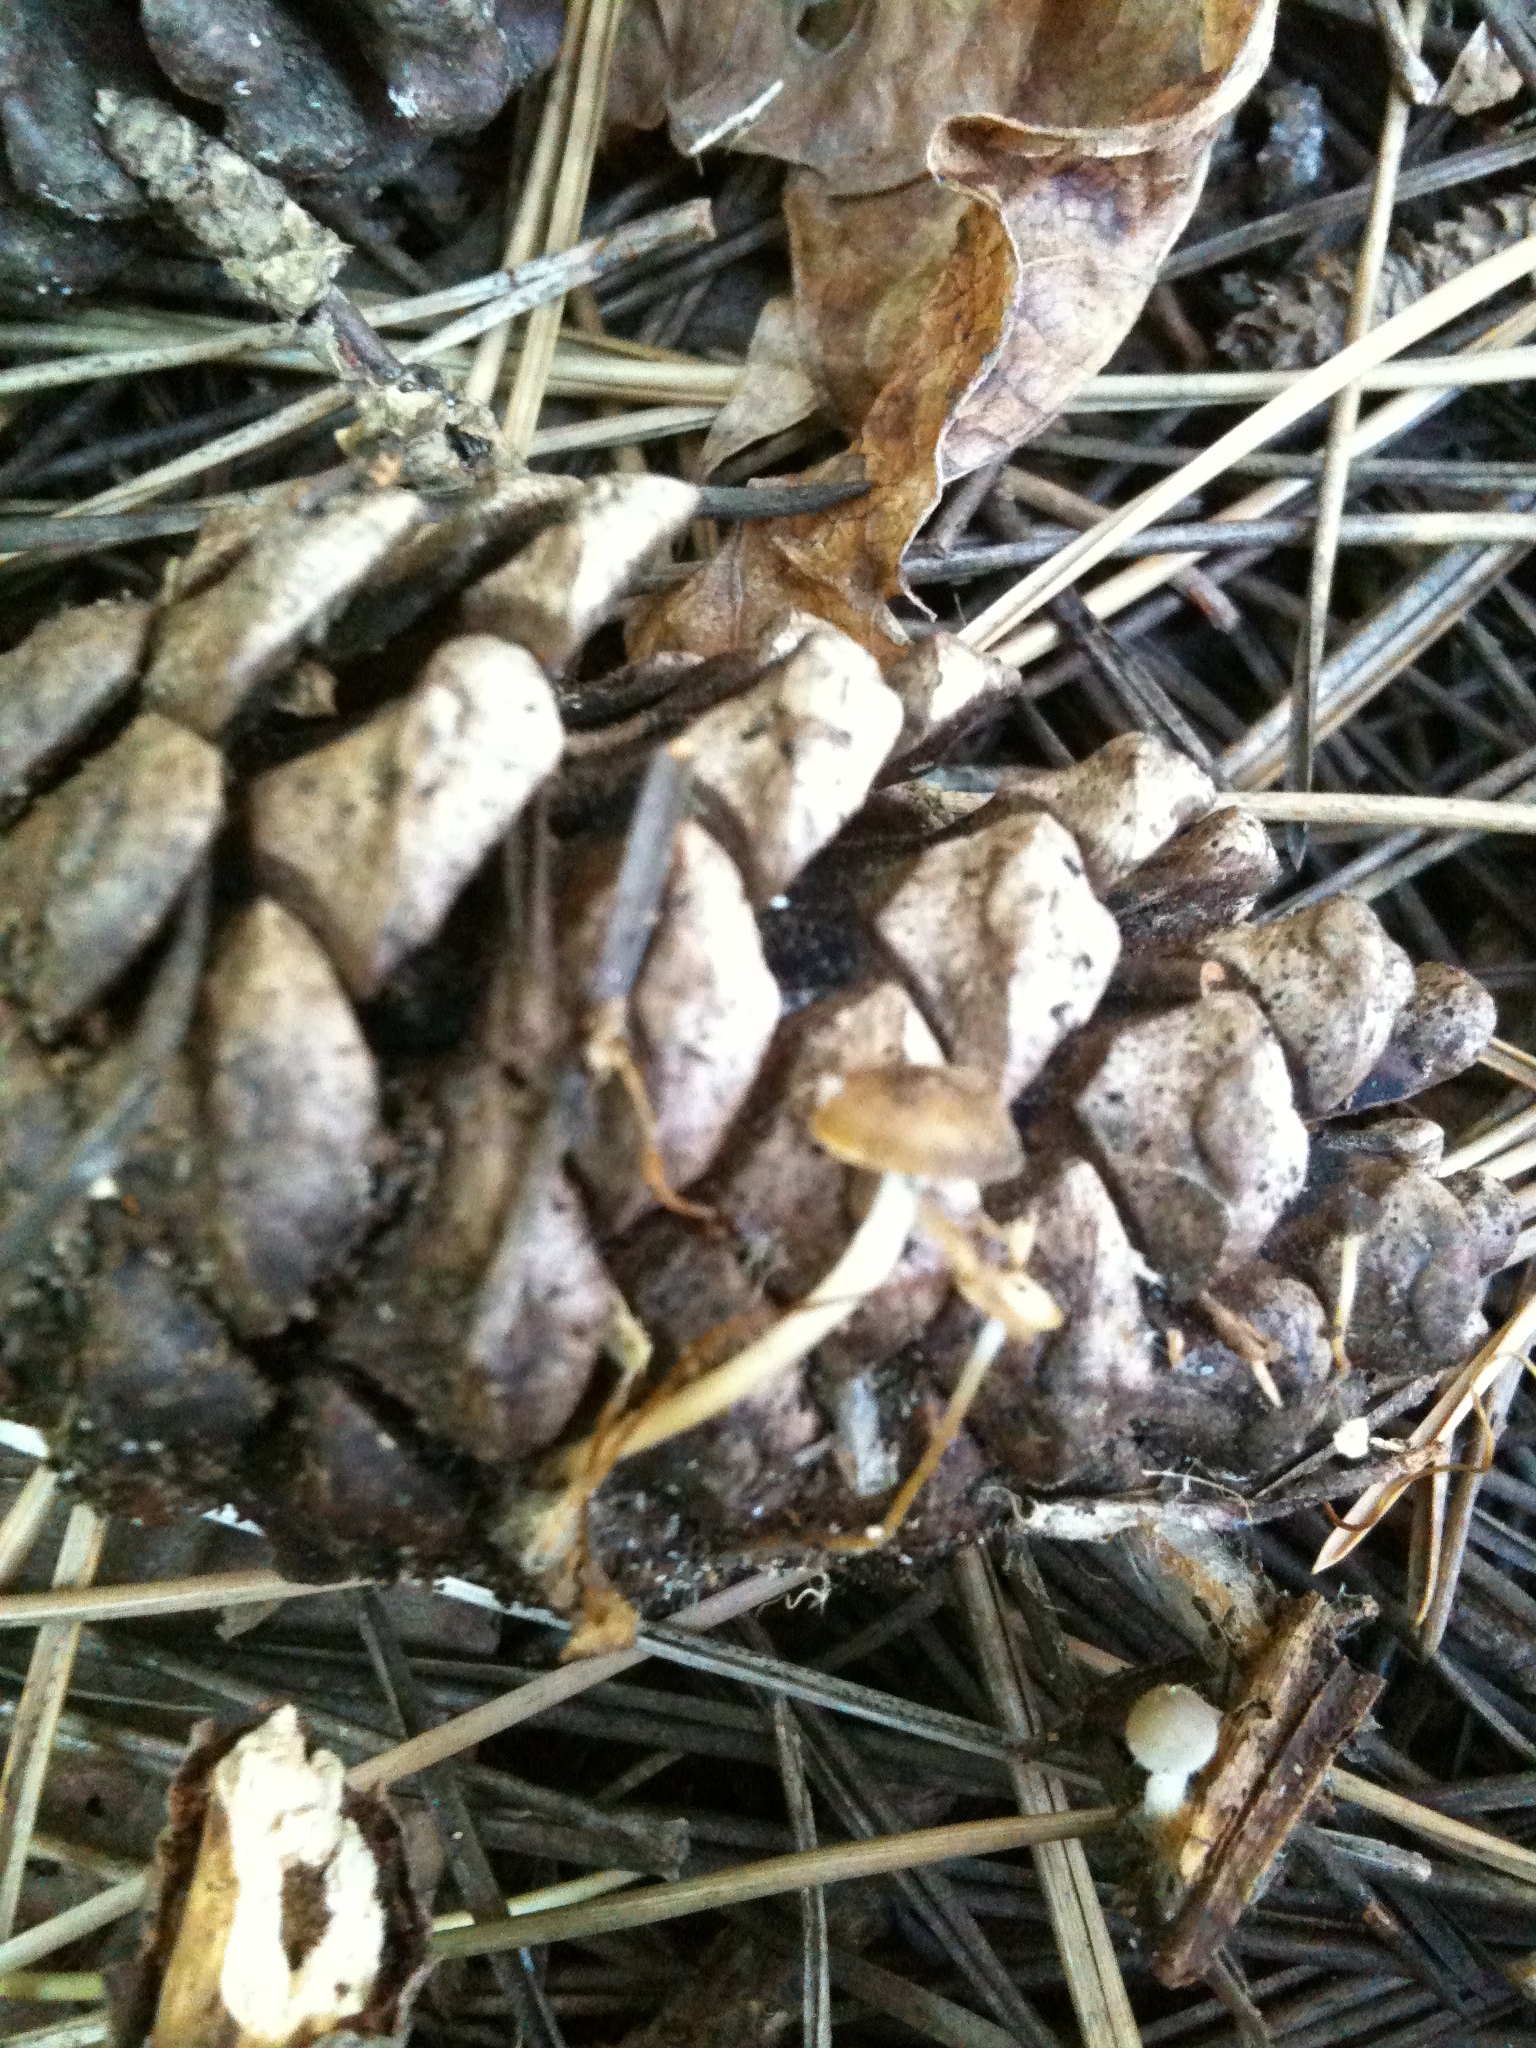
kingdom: Fungi
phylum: Basidiomycota
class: Agaricomycetes
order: Agaricales
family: Physalacriaceae
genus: Strobilurus
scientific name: Strobilurus stephanocystis
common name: Russian conecap
